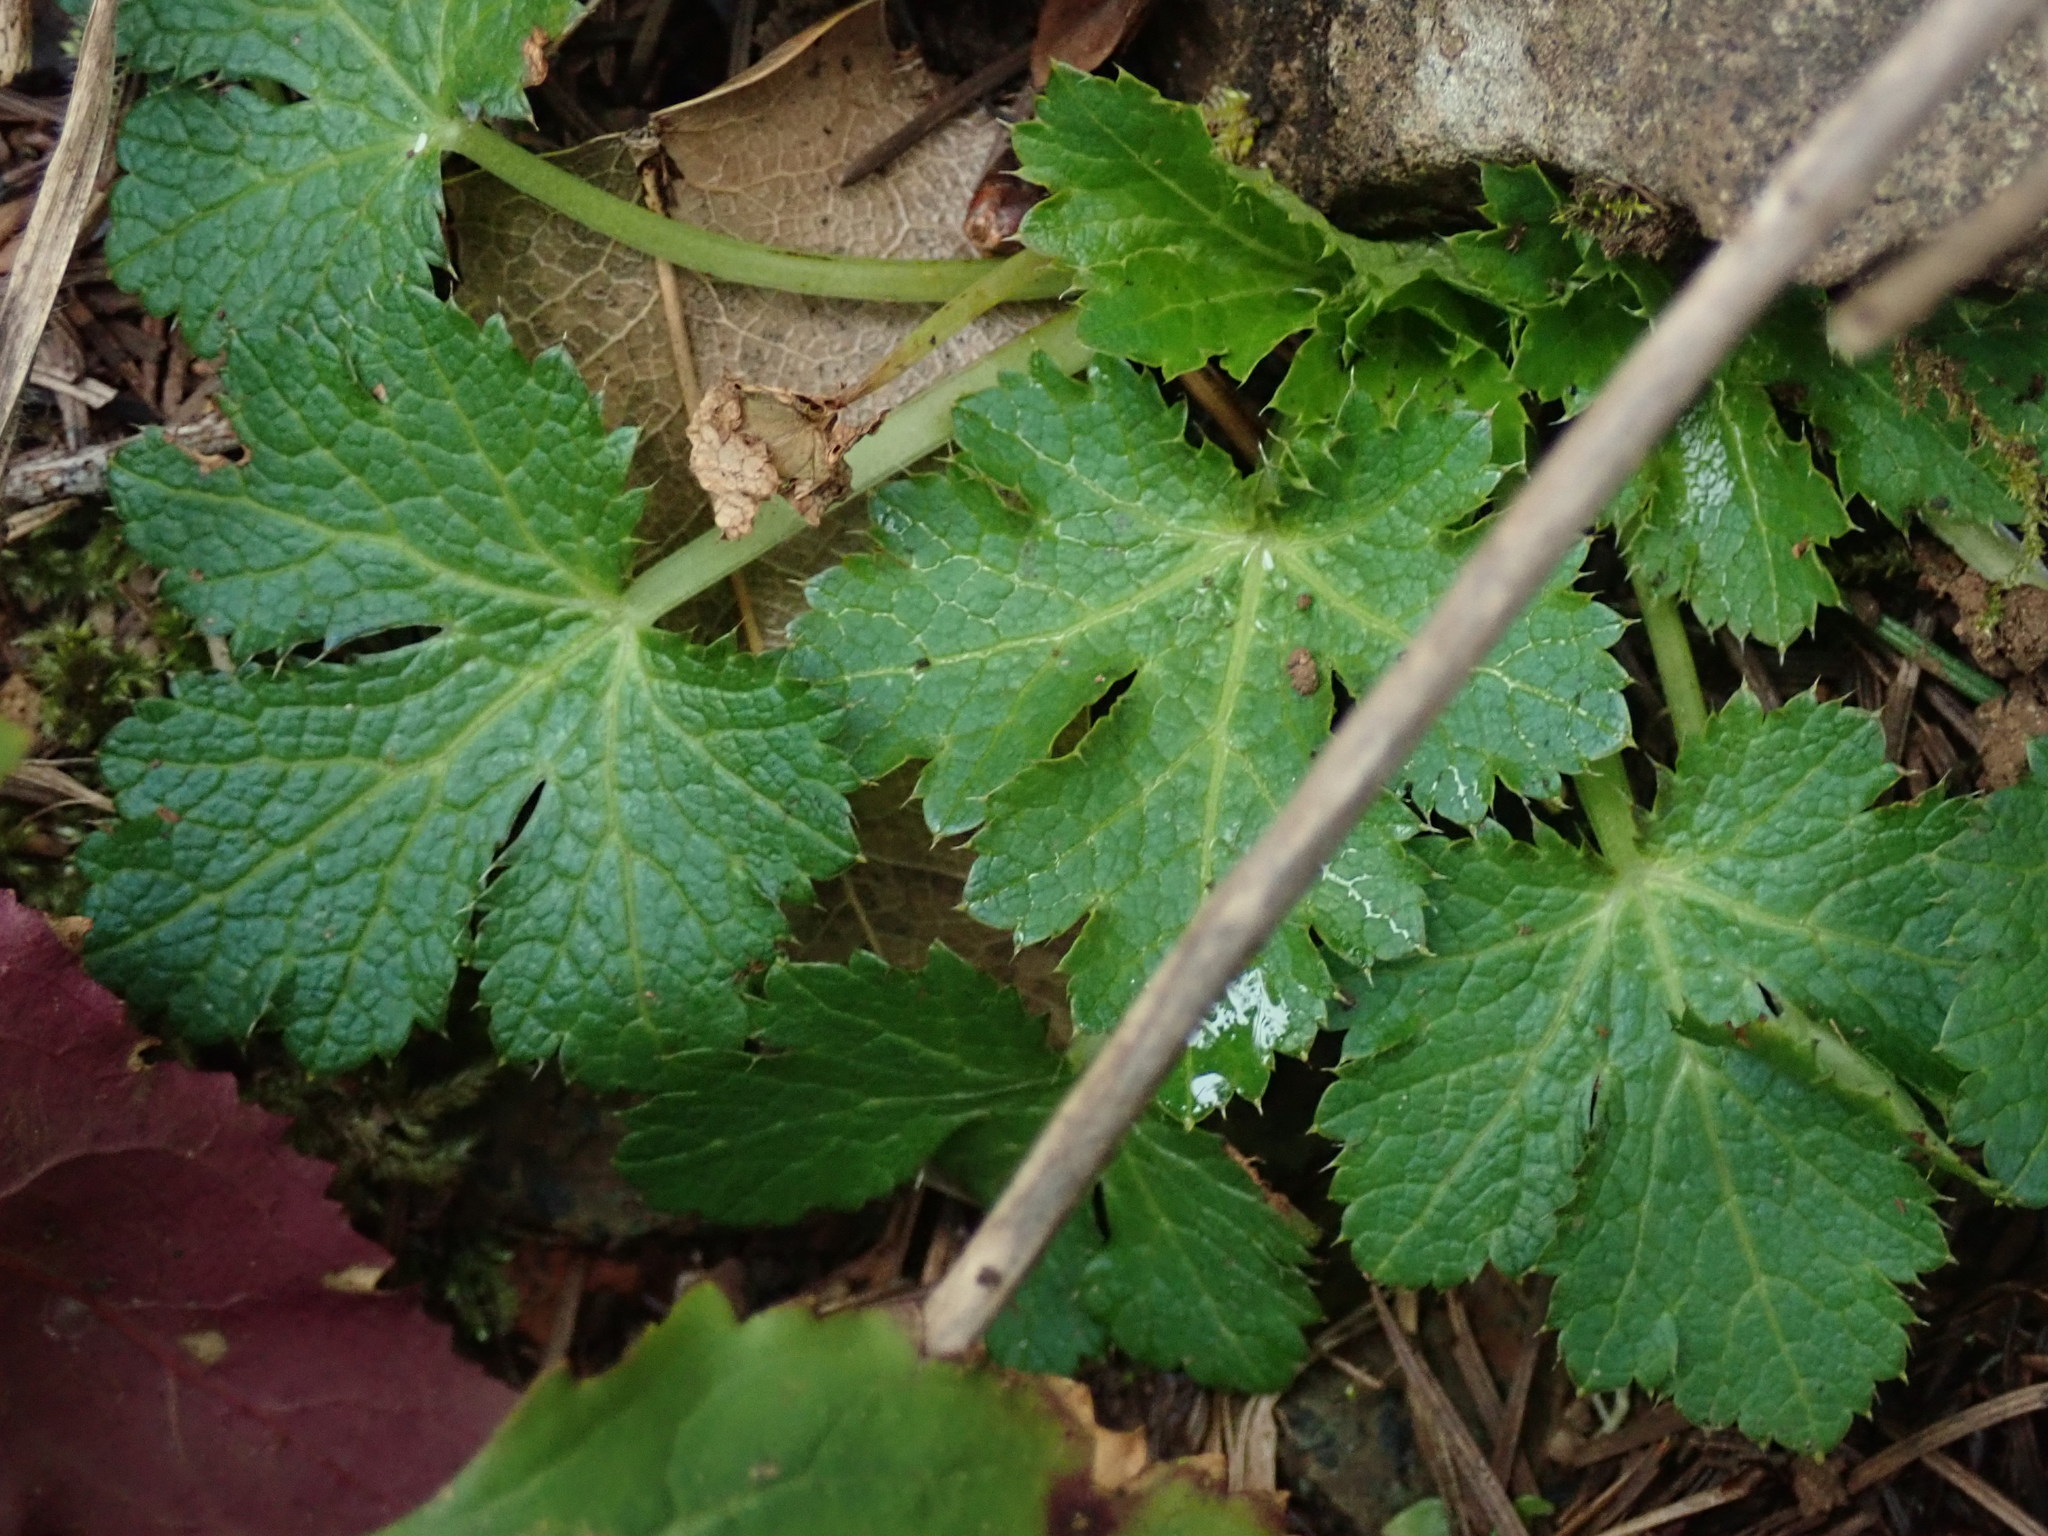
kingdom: Plantae
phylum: Tracheophyta
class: Magnoliopsida
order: Apiales
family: Apiaceae
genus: Sanicula
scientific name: Sanicula crassicaulis
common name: Western snakeroot
